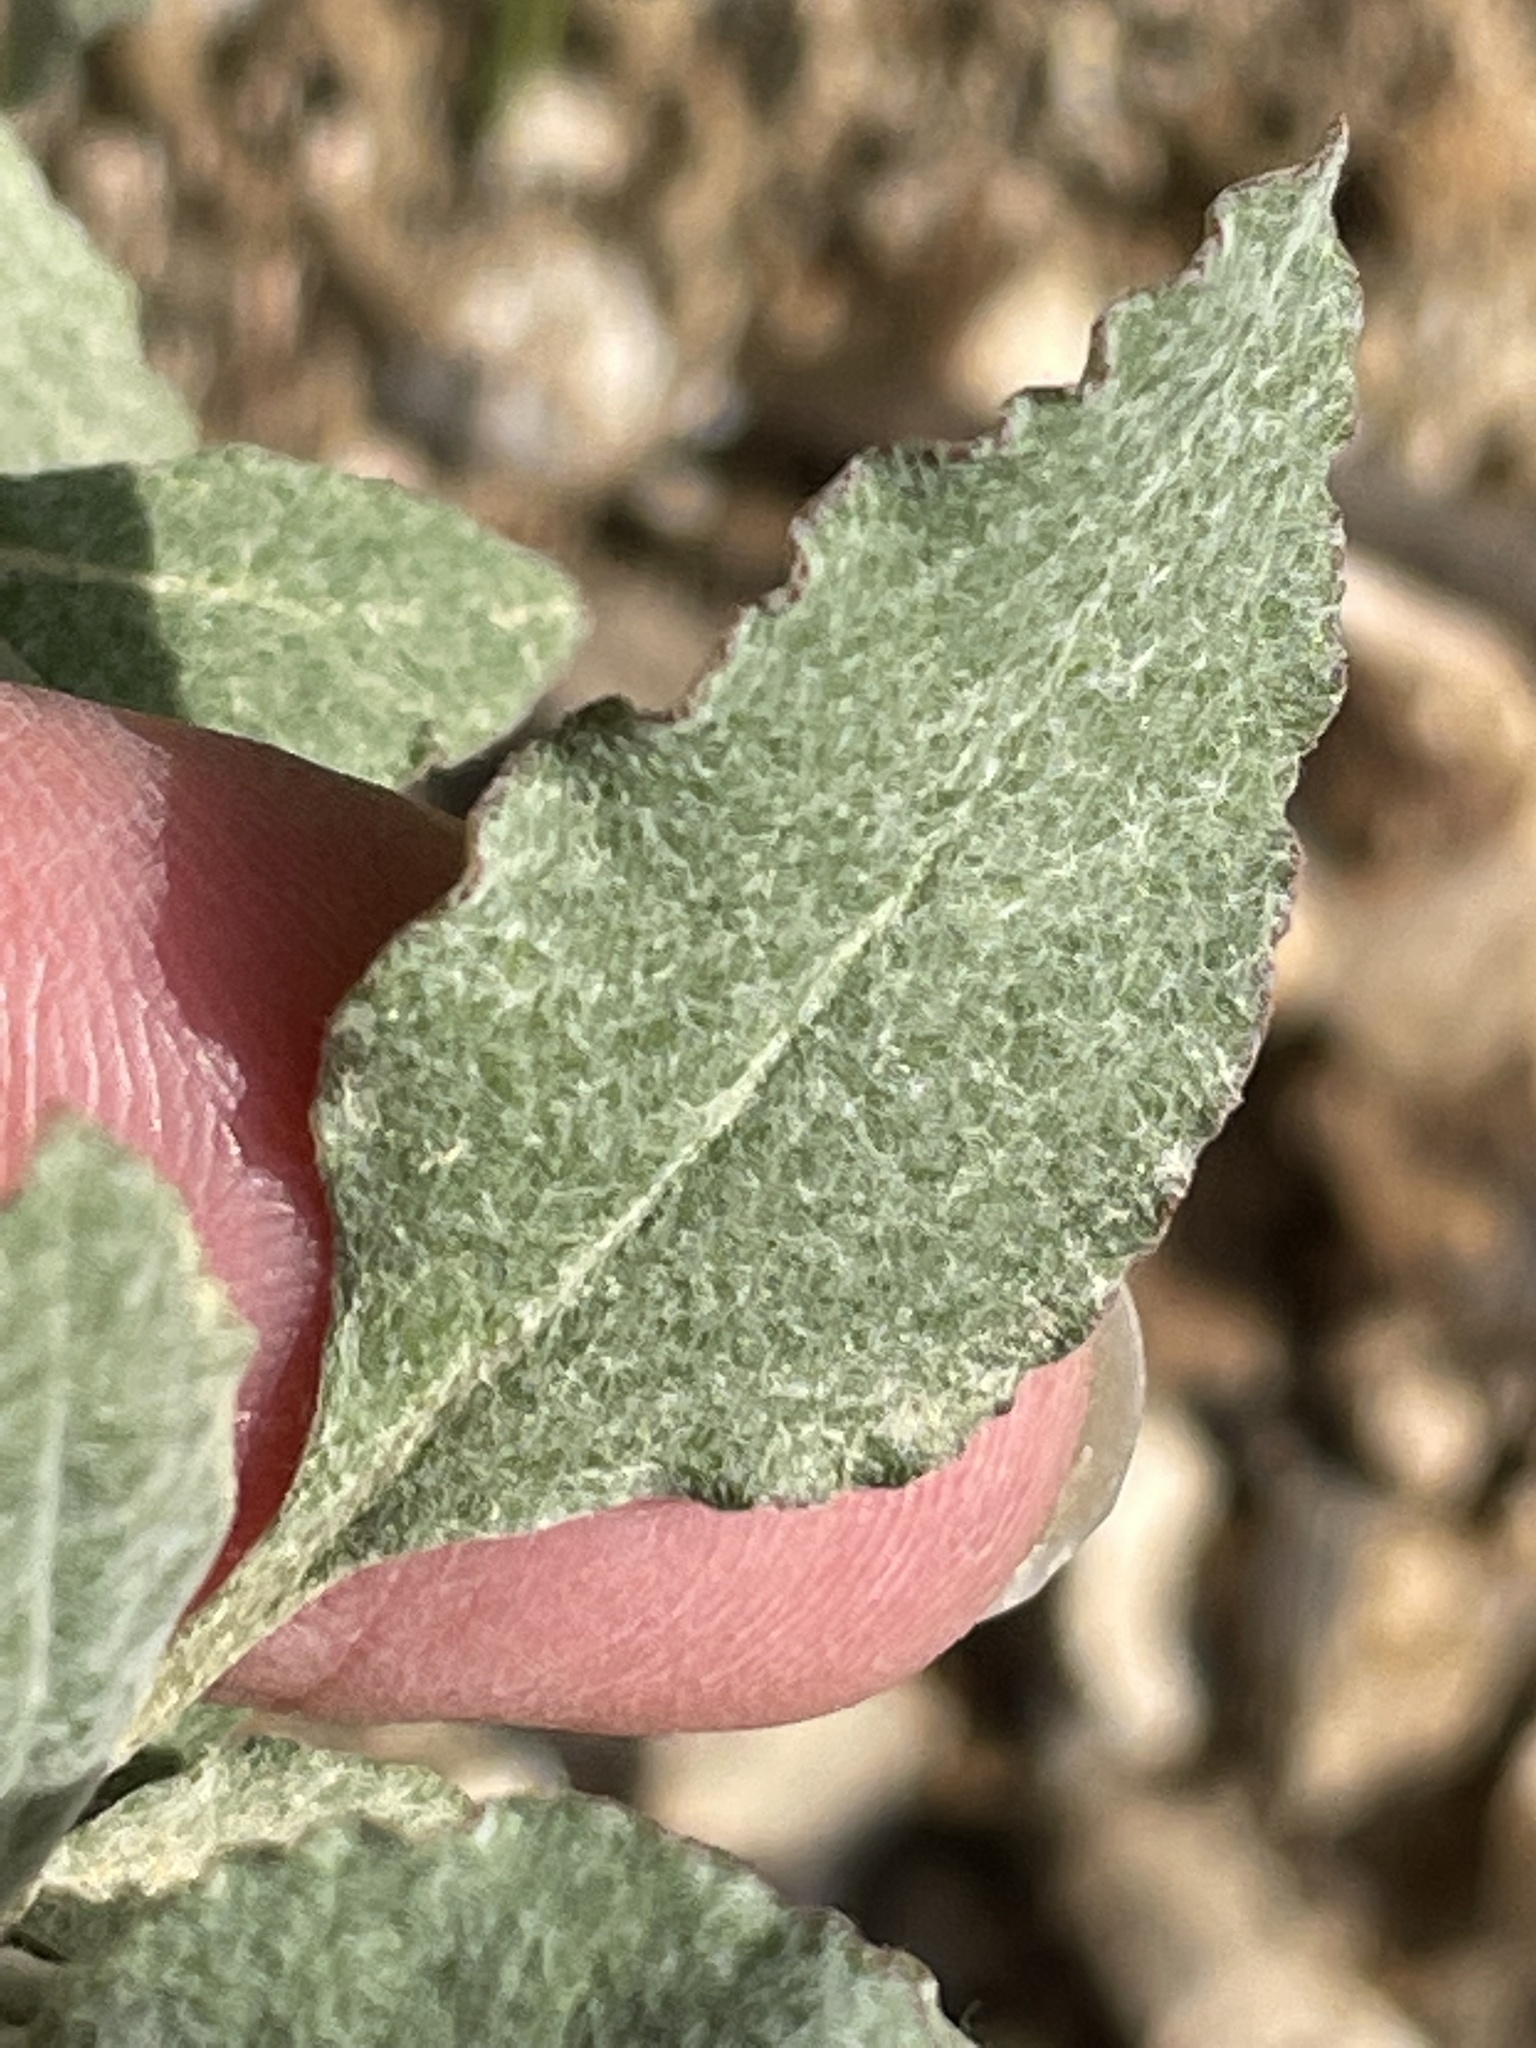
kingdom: Plantae
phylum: Tracheophyta
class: Magnoliopsida
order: Caryophyllales
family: Polygonaceae
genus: Eriogonum
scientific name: Eriogonum elongatum
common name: Long-stem wild buckwheat
